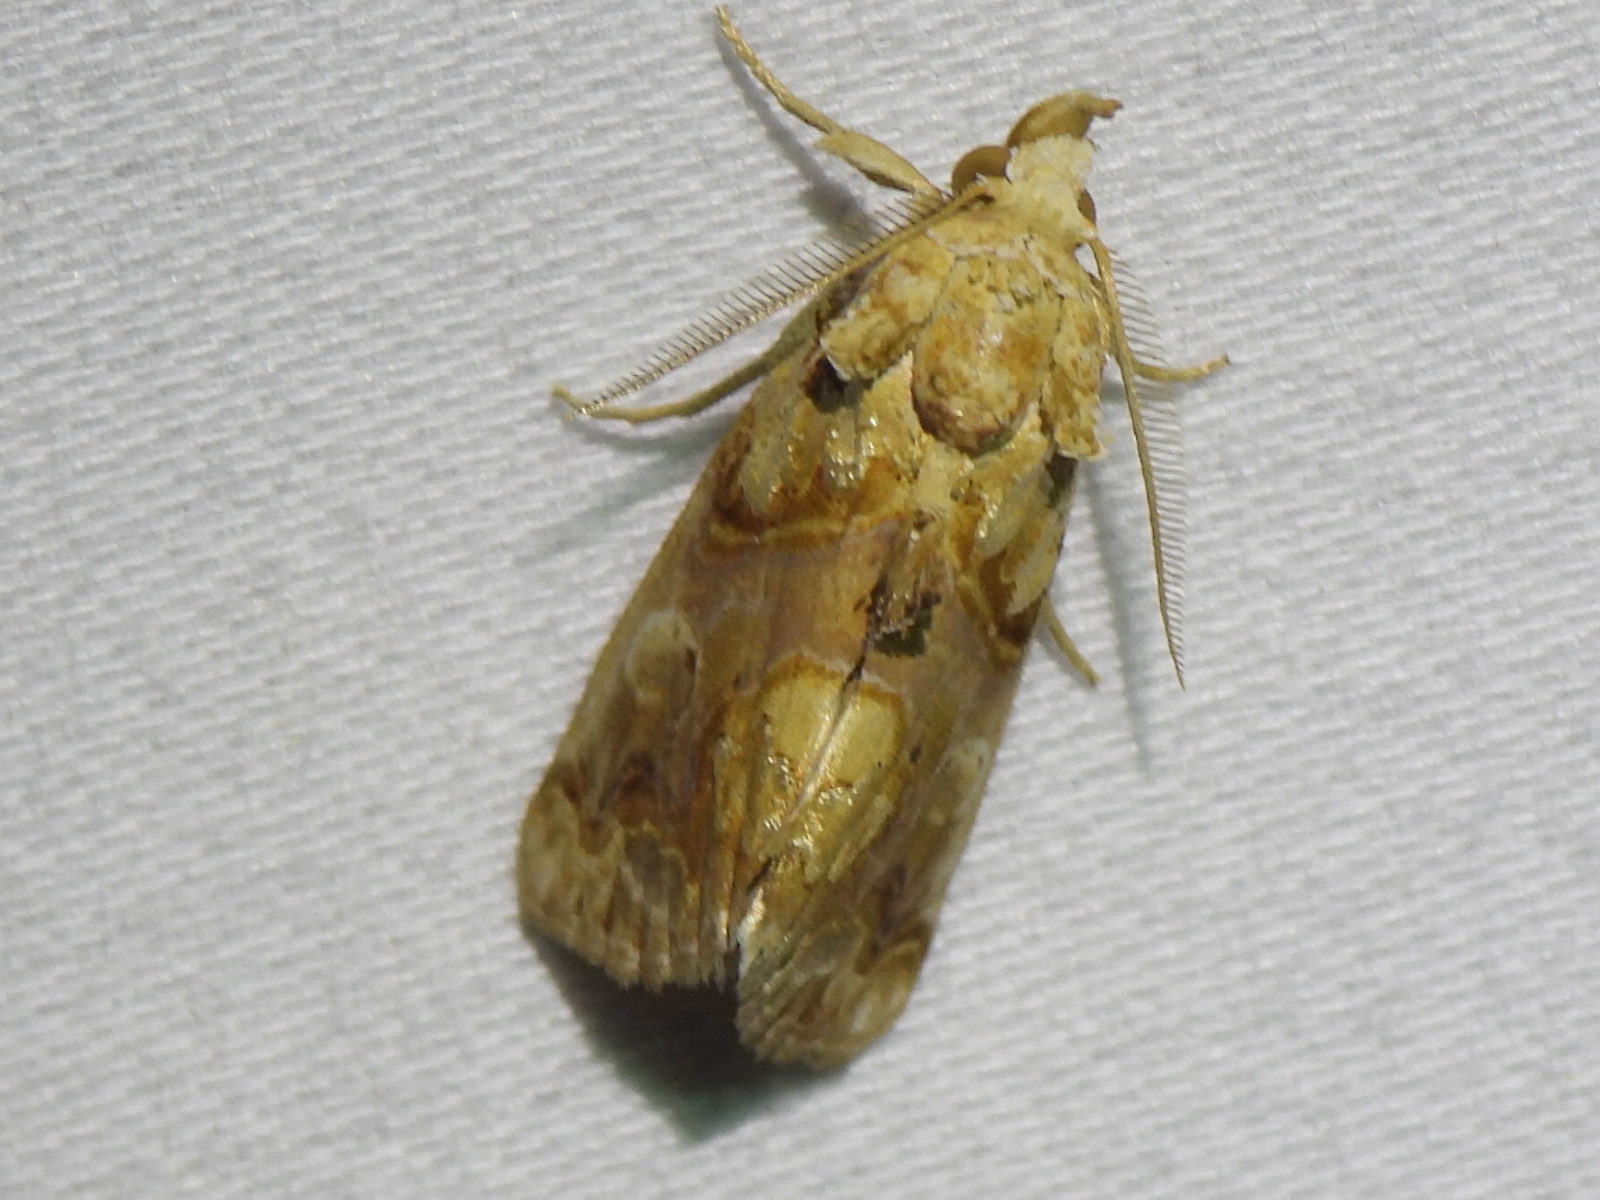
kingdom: Animalia
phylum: Arthropoda
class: Insecta
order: Lepidoptera
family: Erebidae
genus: Plusiodonta
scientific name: Plusiodonta compressipalpis
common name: Moonseed moth
